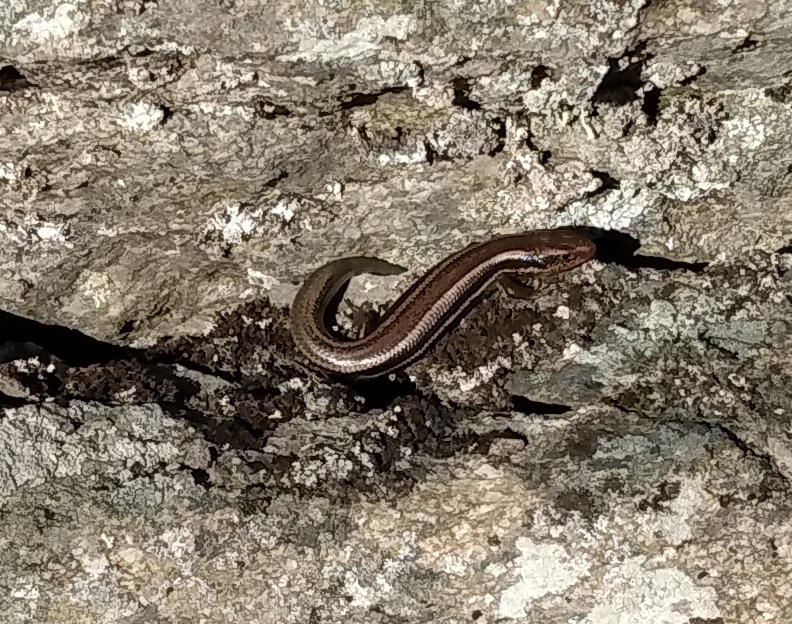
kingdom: Animalia
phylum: Chordata
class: Squamata
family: Scincidae
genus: Plestiodon
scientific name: Plestiodon skiltonianus
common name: Coronado island skink [interparietalis]
